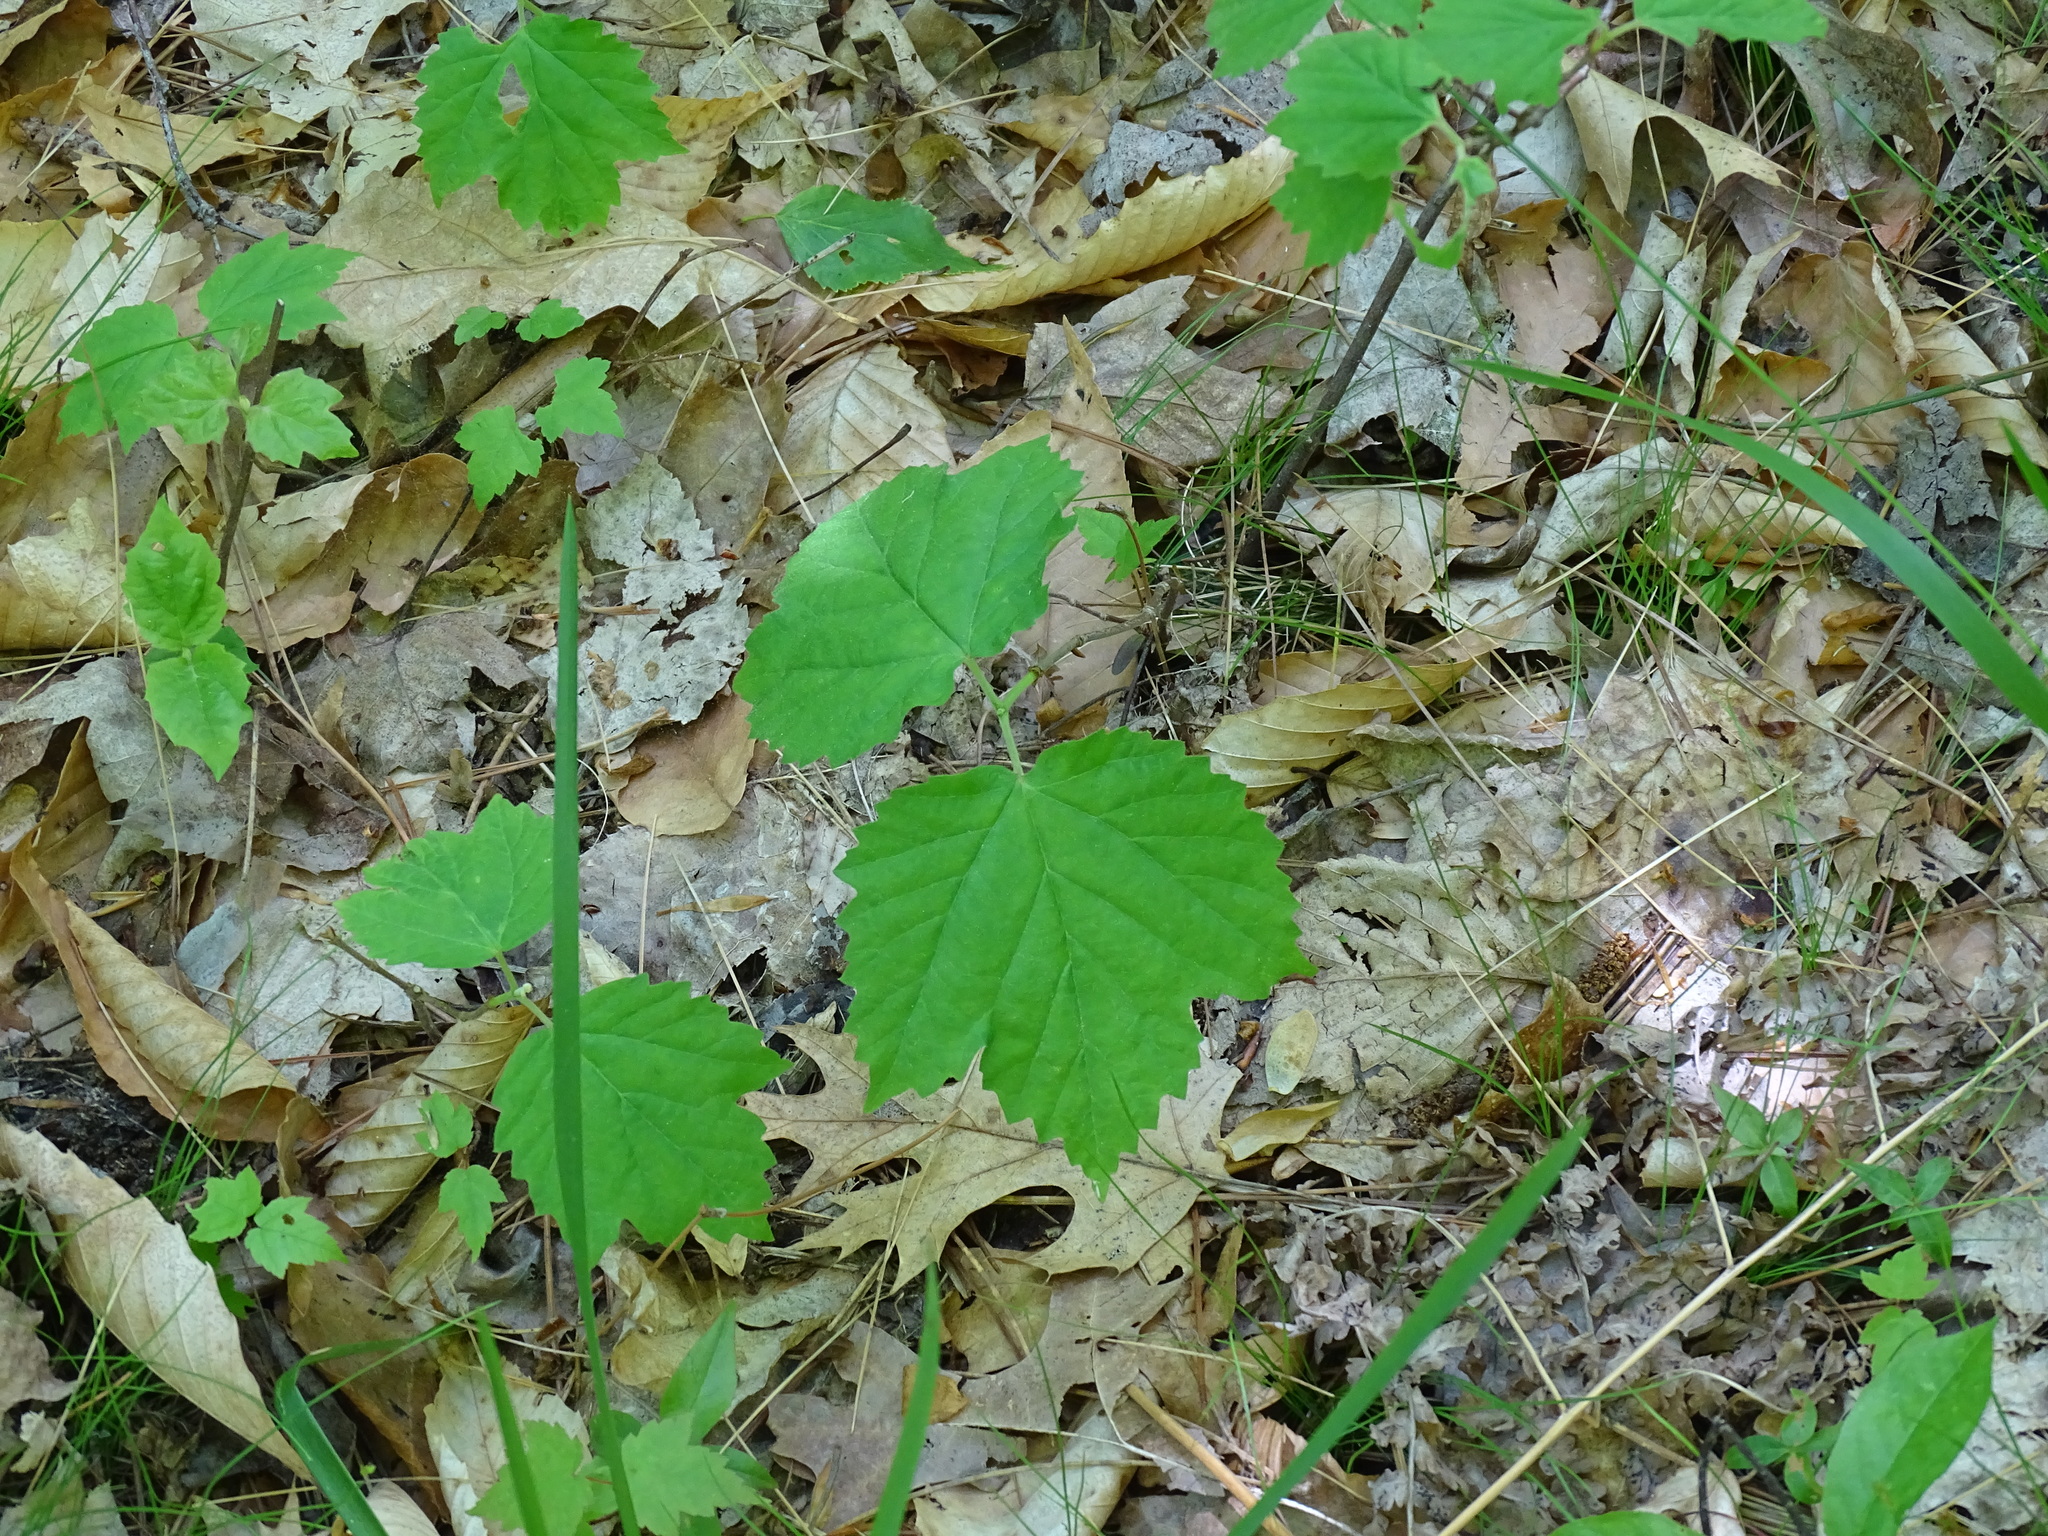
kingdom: Plantae
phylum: Tracheophyta
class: Magnoliopsida
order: Dipsacales
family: Viburnaceae
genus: Viburnum
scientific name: Viburnum acerifolium
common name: Dockmackie
